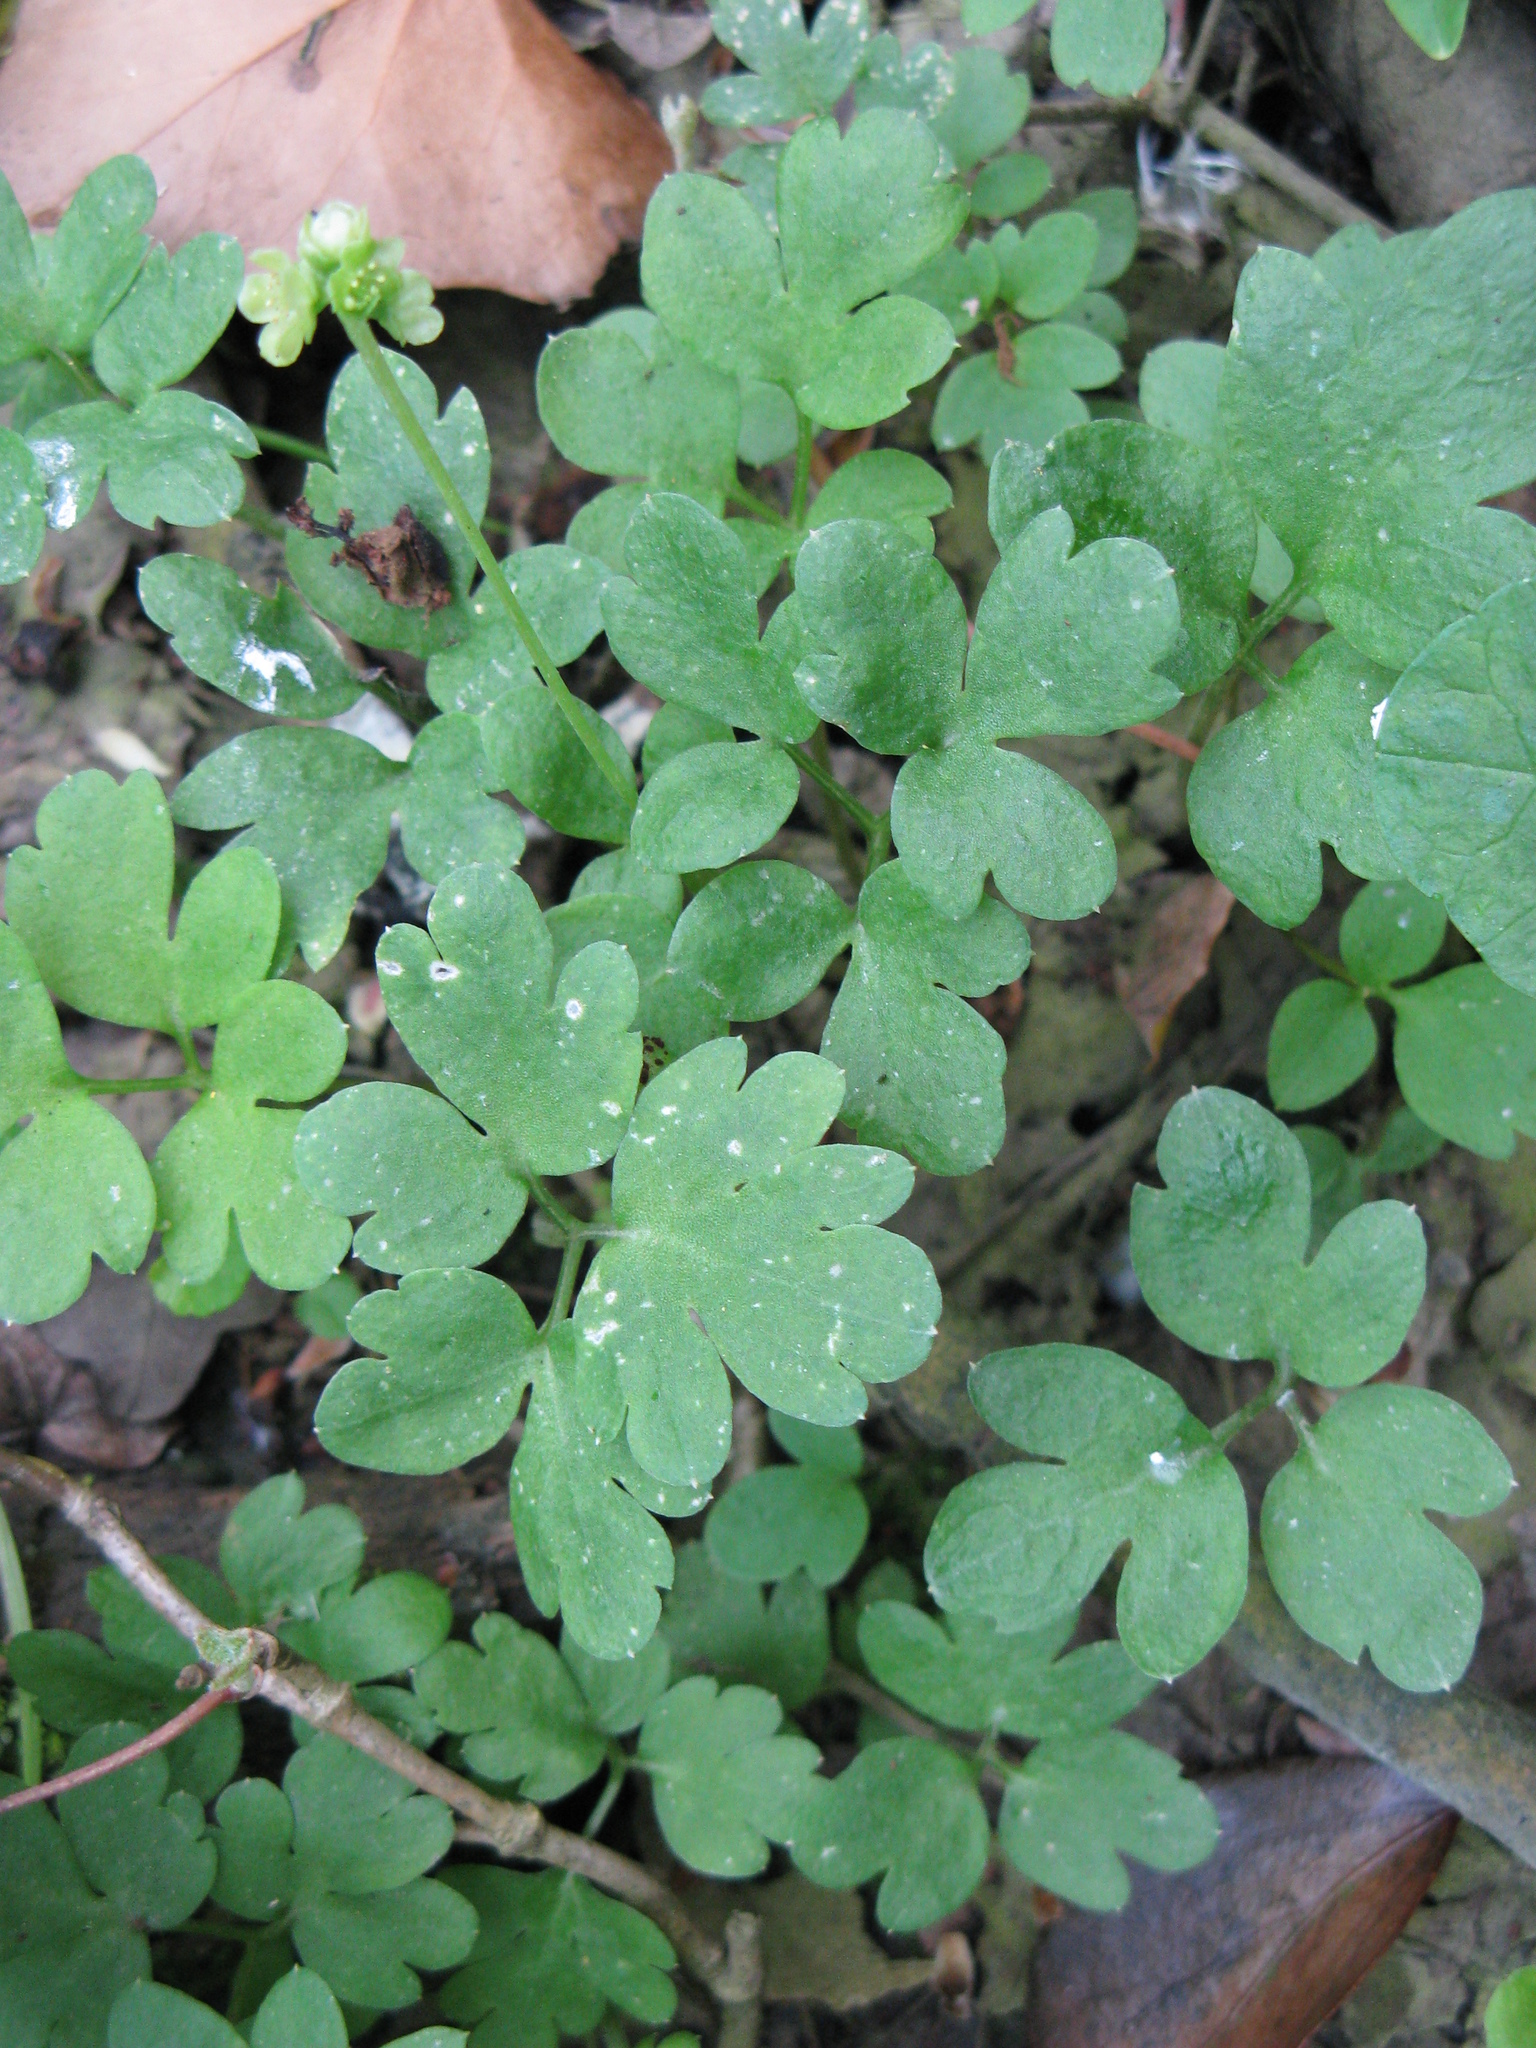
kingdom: Plantae
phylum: Tracheophyta
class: Magnoliopsida
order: Dipsacales
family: Viburnaceae
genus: Adoxa
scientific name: Adoxa moschatellina
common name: Moschatel
